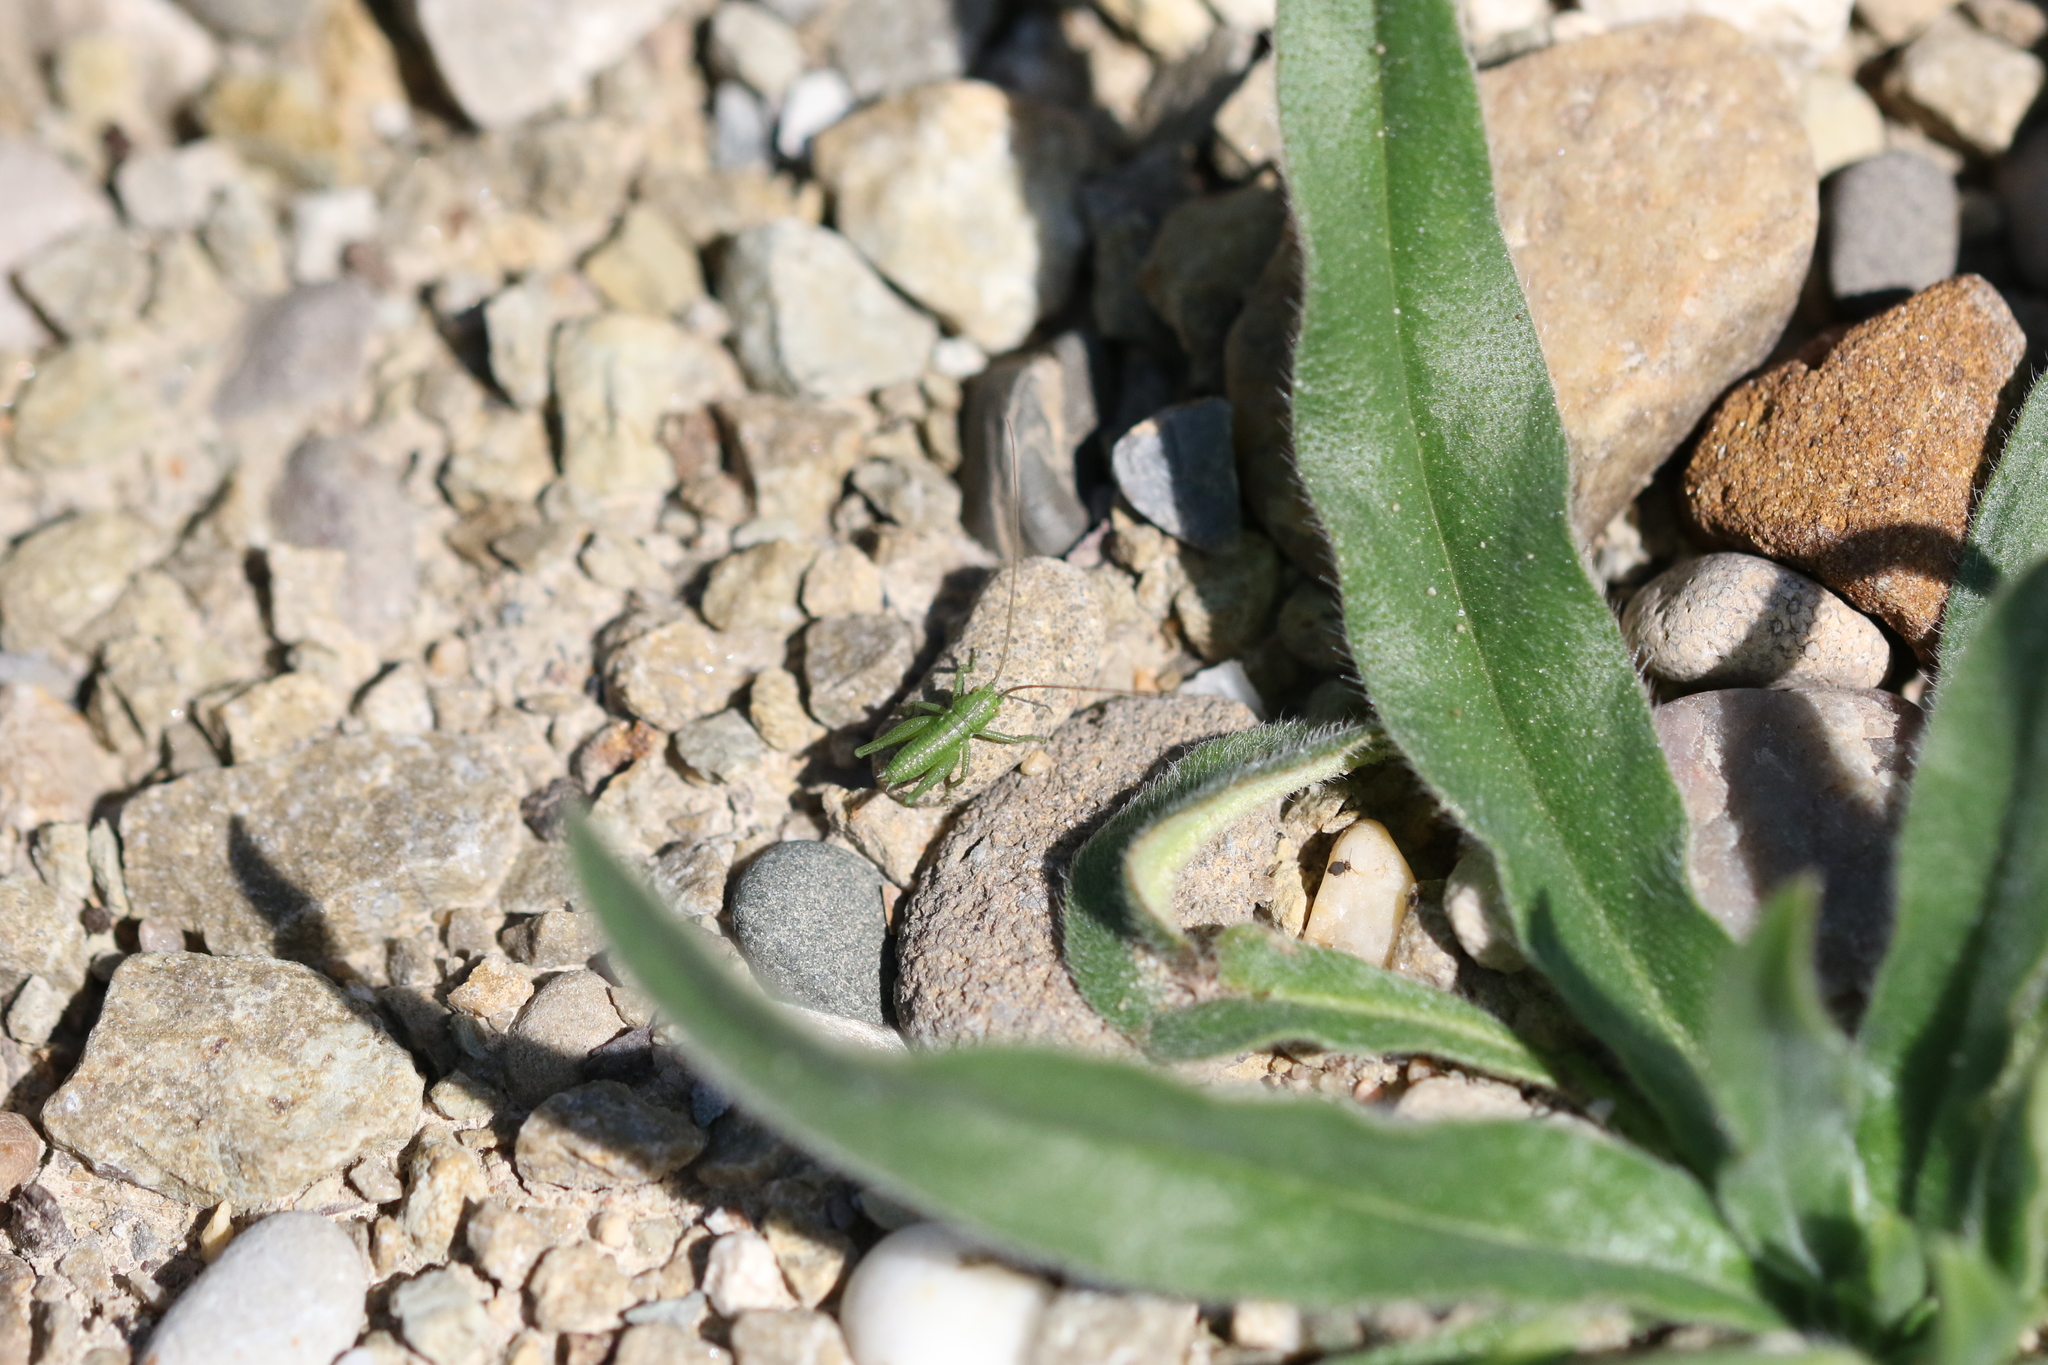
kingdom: Animalia
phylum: Arthropoda
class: Insecta
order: Orthoptera
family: Tettigoniidae
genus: Tettigonia
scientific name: Tettigonia viridissima
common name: Great green bush-cricket
